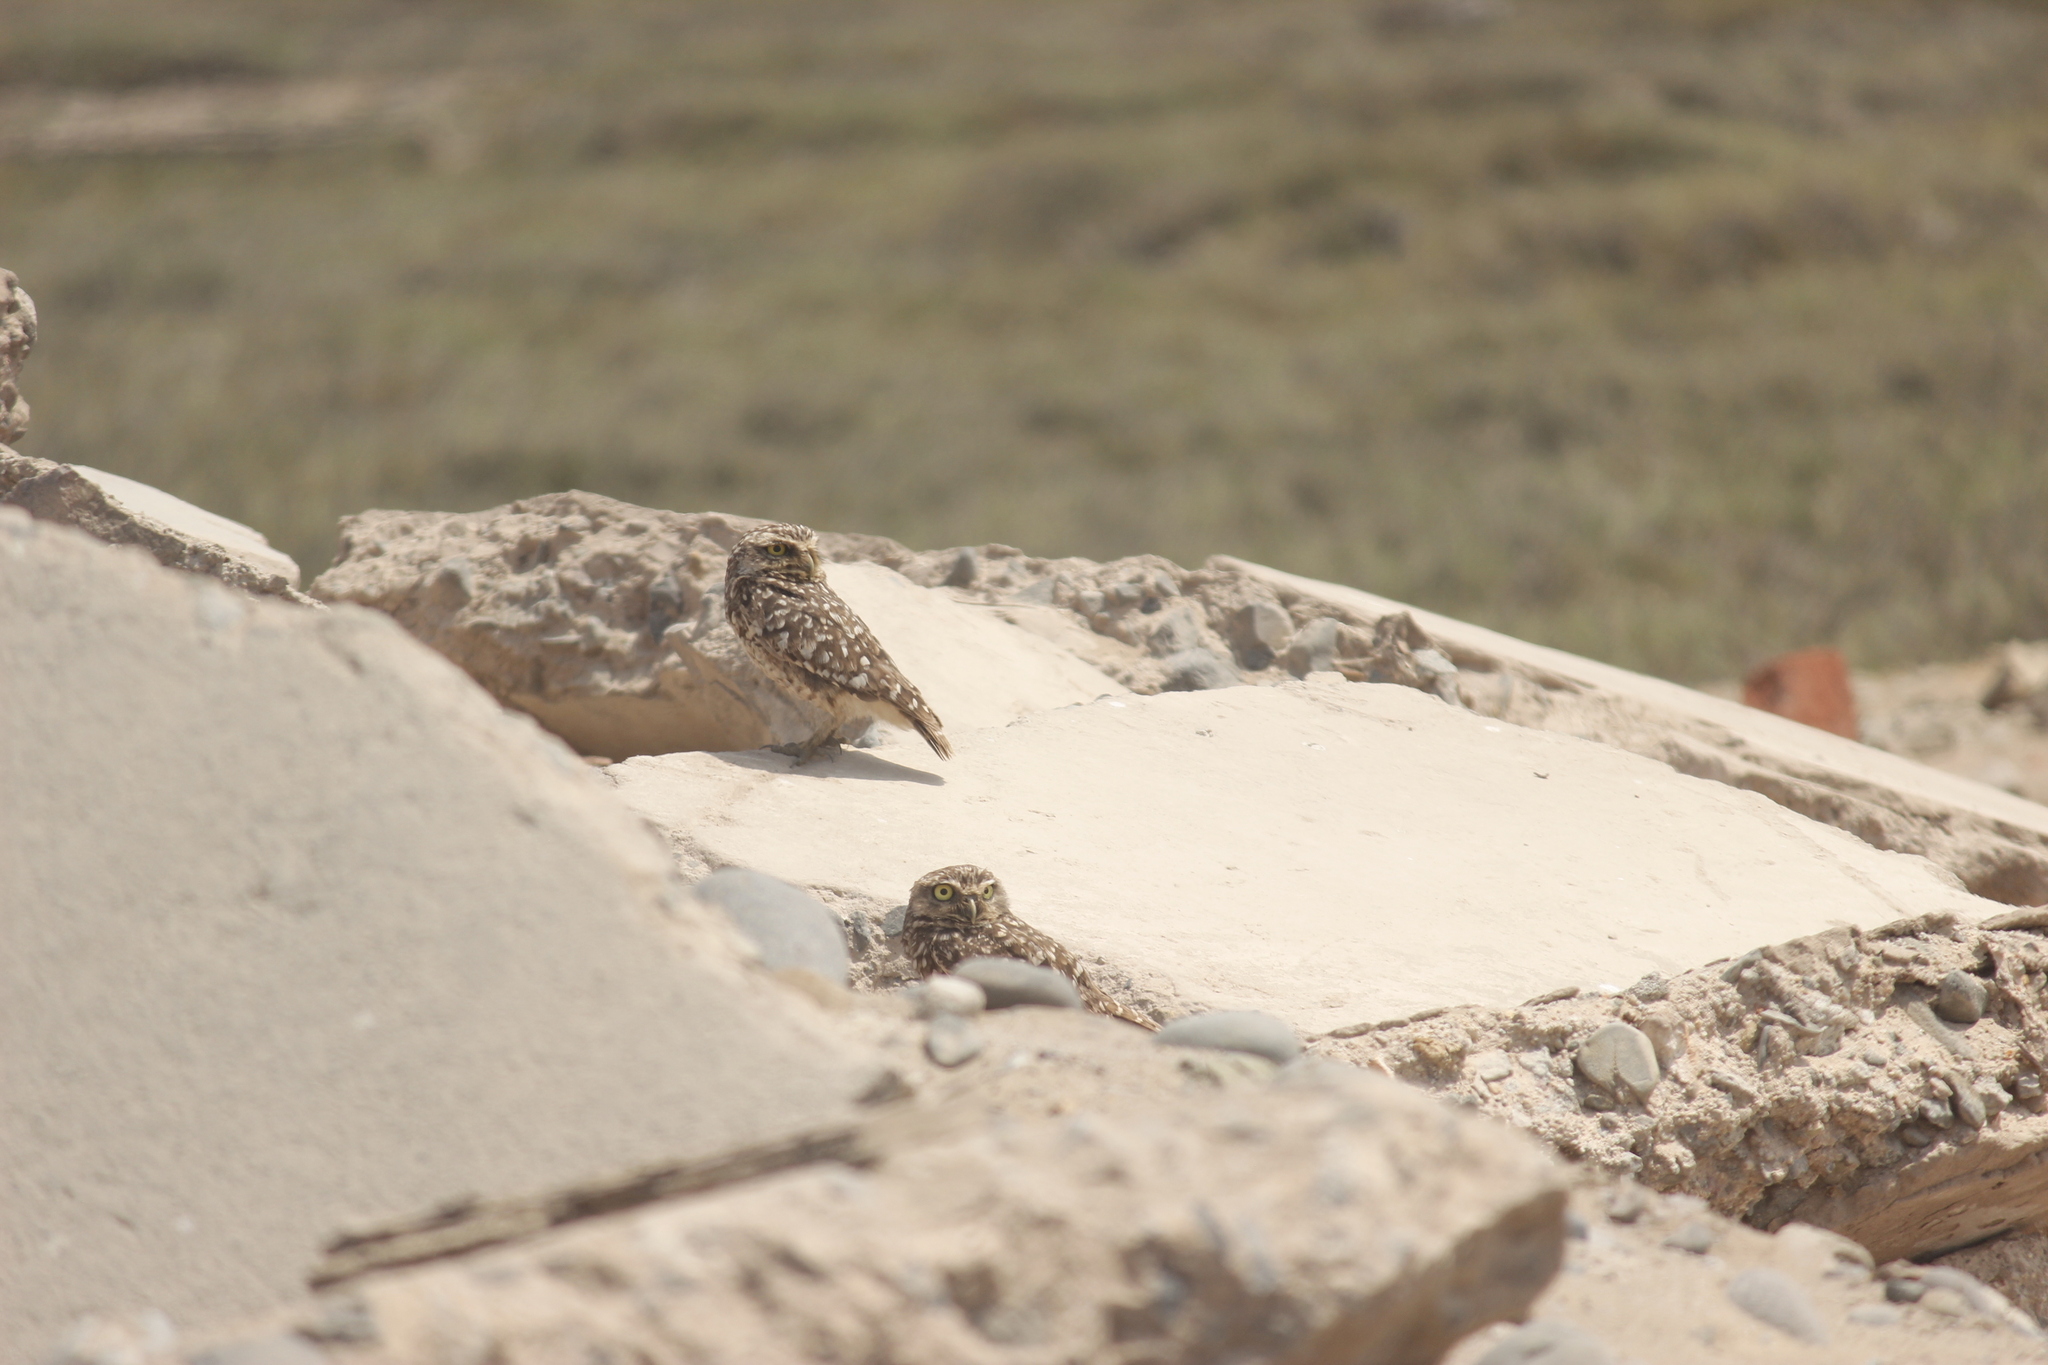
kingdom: Animalia
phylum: Chordata
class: Aves
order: Strigiformes
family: Strigidae
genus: Athene
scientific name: Athene cunicularia
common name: Burrowing owl
